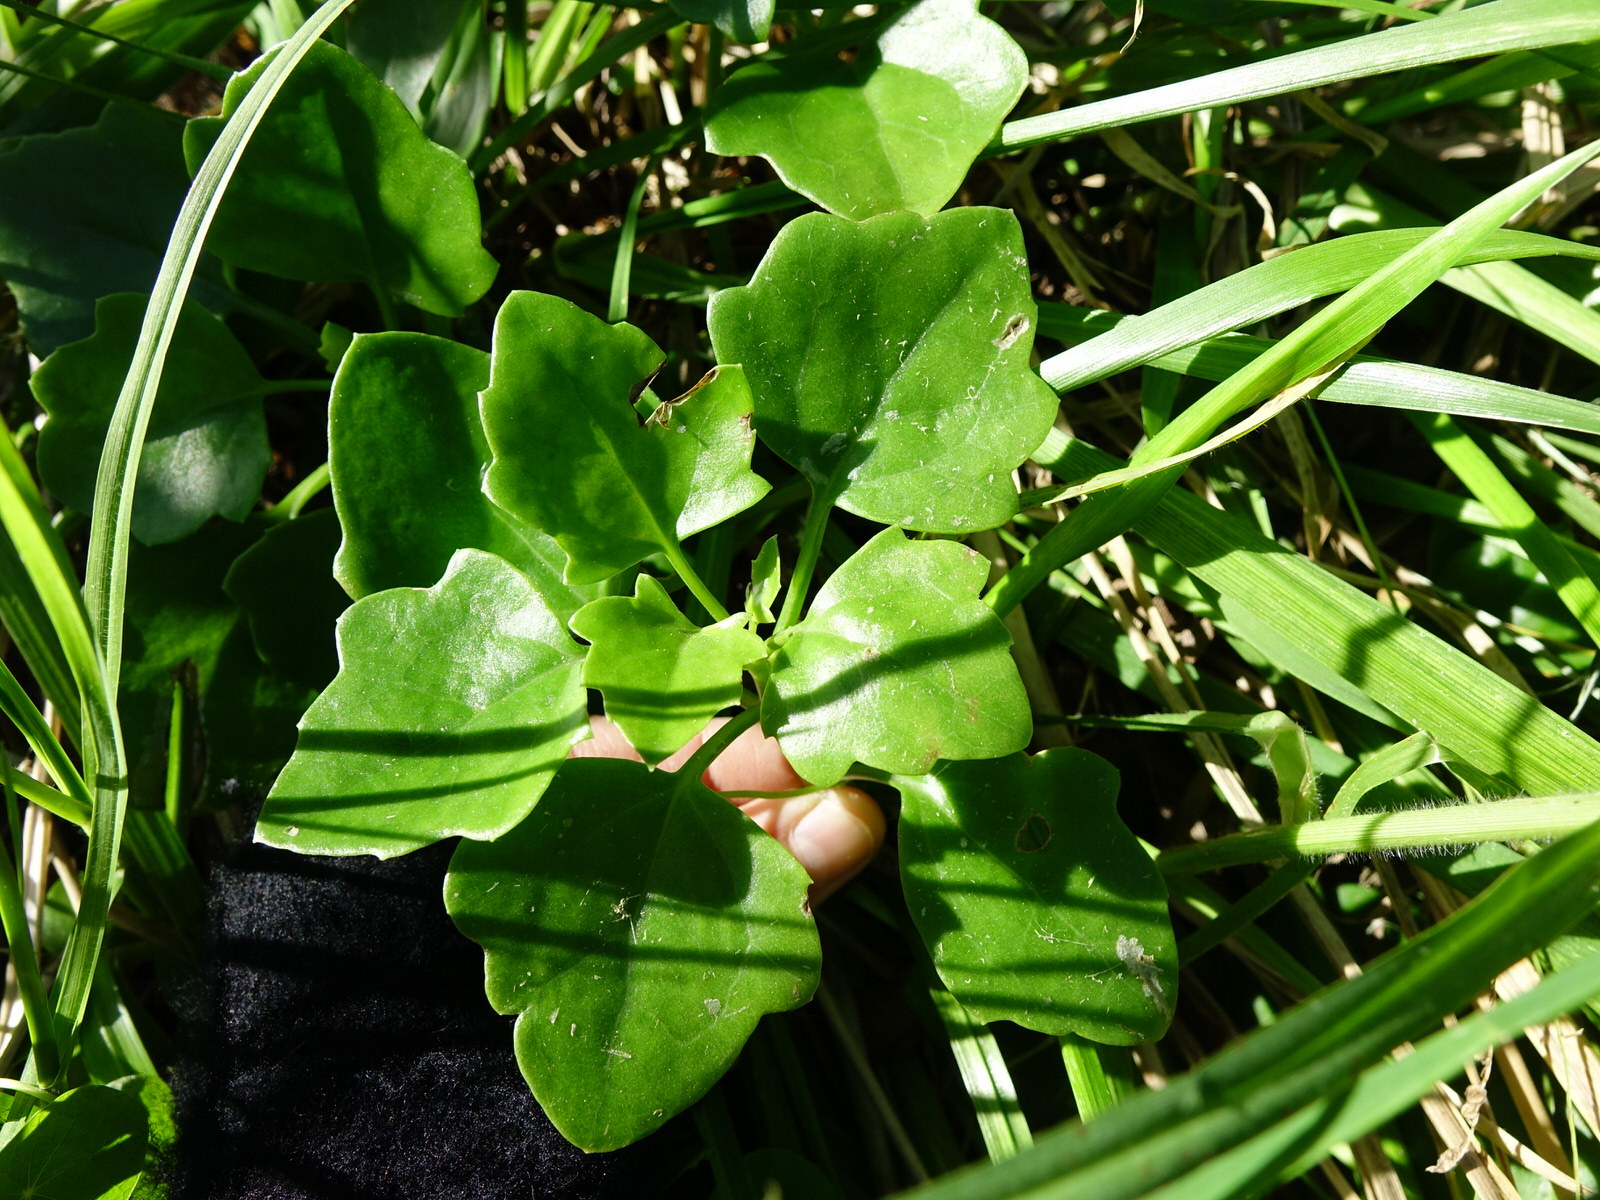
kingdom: Plantae
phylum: Tracheophyta
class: Magnoliopsida
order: Asterales
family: Asteraceae
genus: Senecio
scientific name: Senecio angulatus
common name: Climbing groundsel
